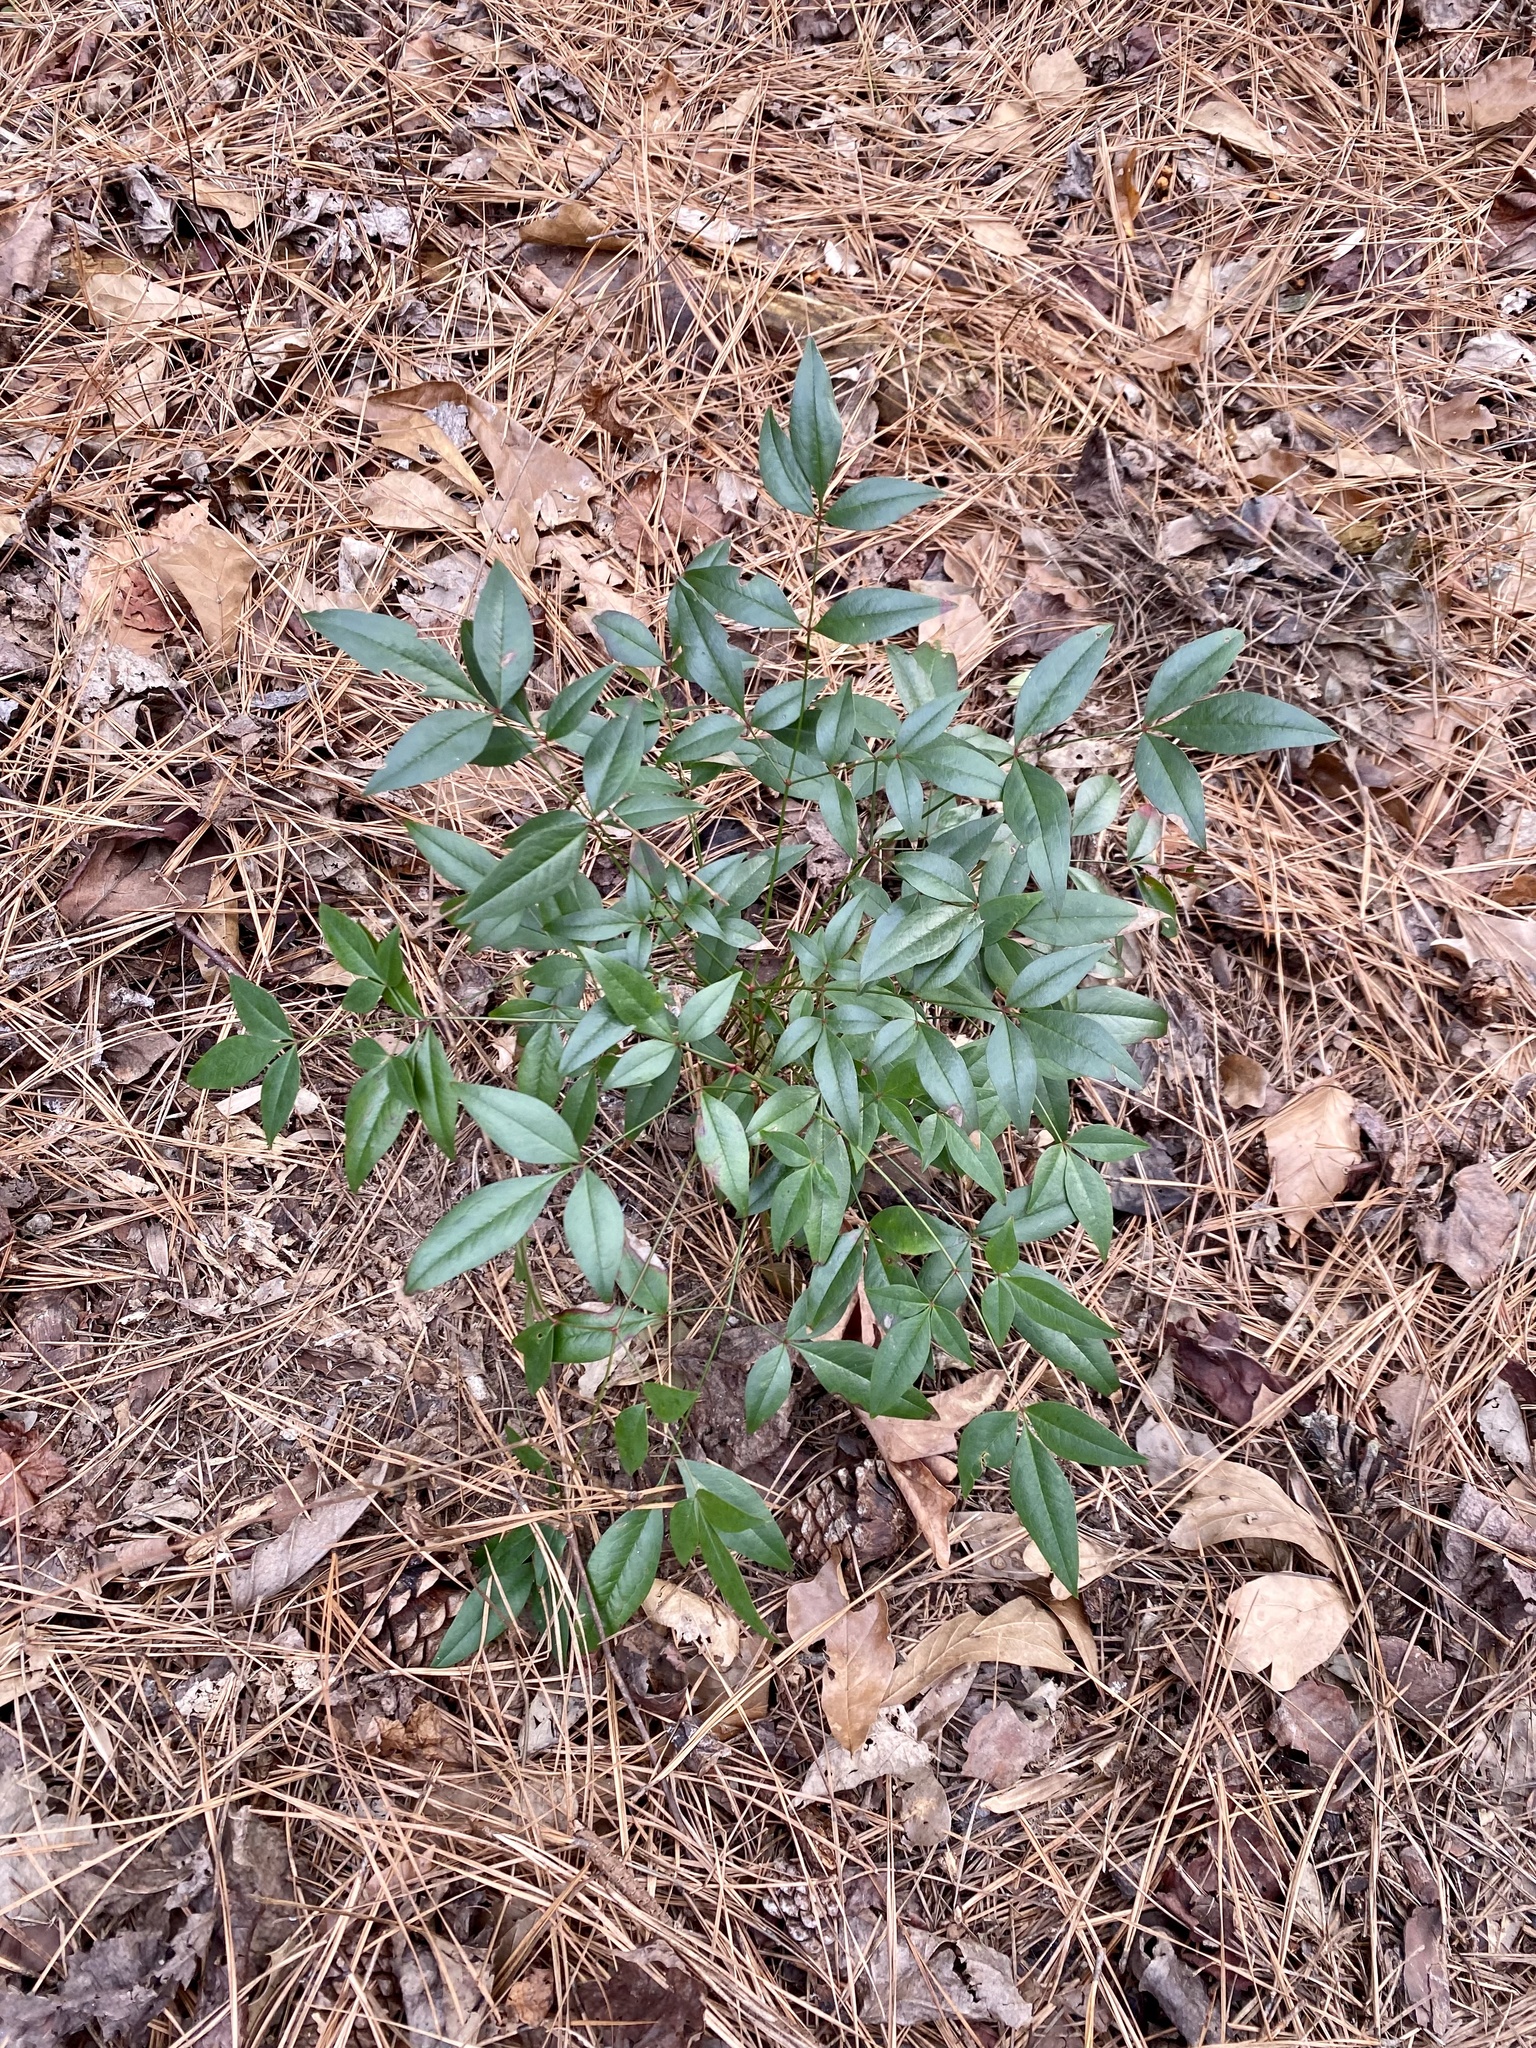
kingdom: Plantae
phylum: Tracheophyta
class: Magnoliopsida
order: Ranunculales
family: Berberidaceae
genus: Nandina
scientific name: Nandina domestica
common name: Sacred bamboo
